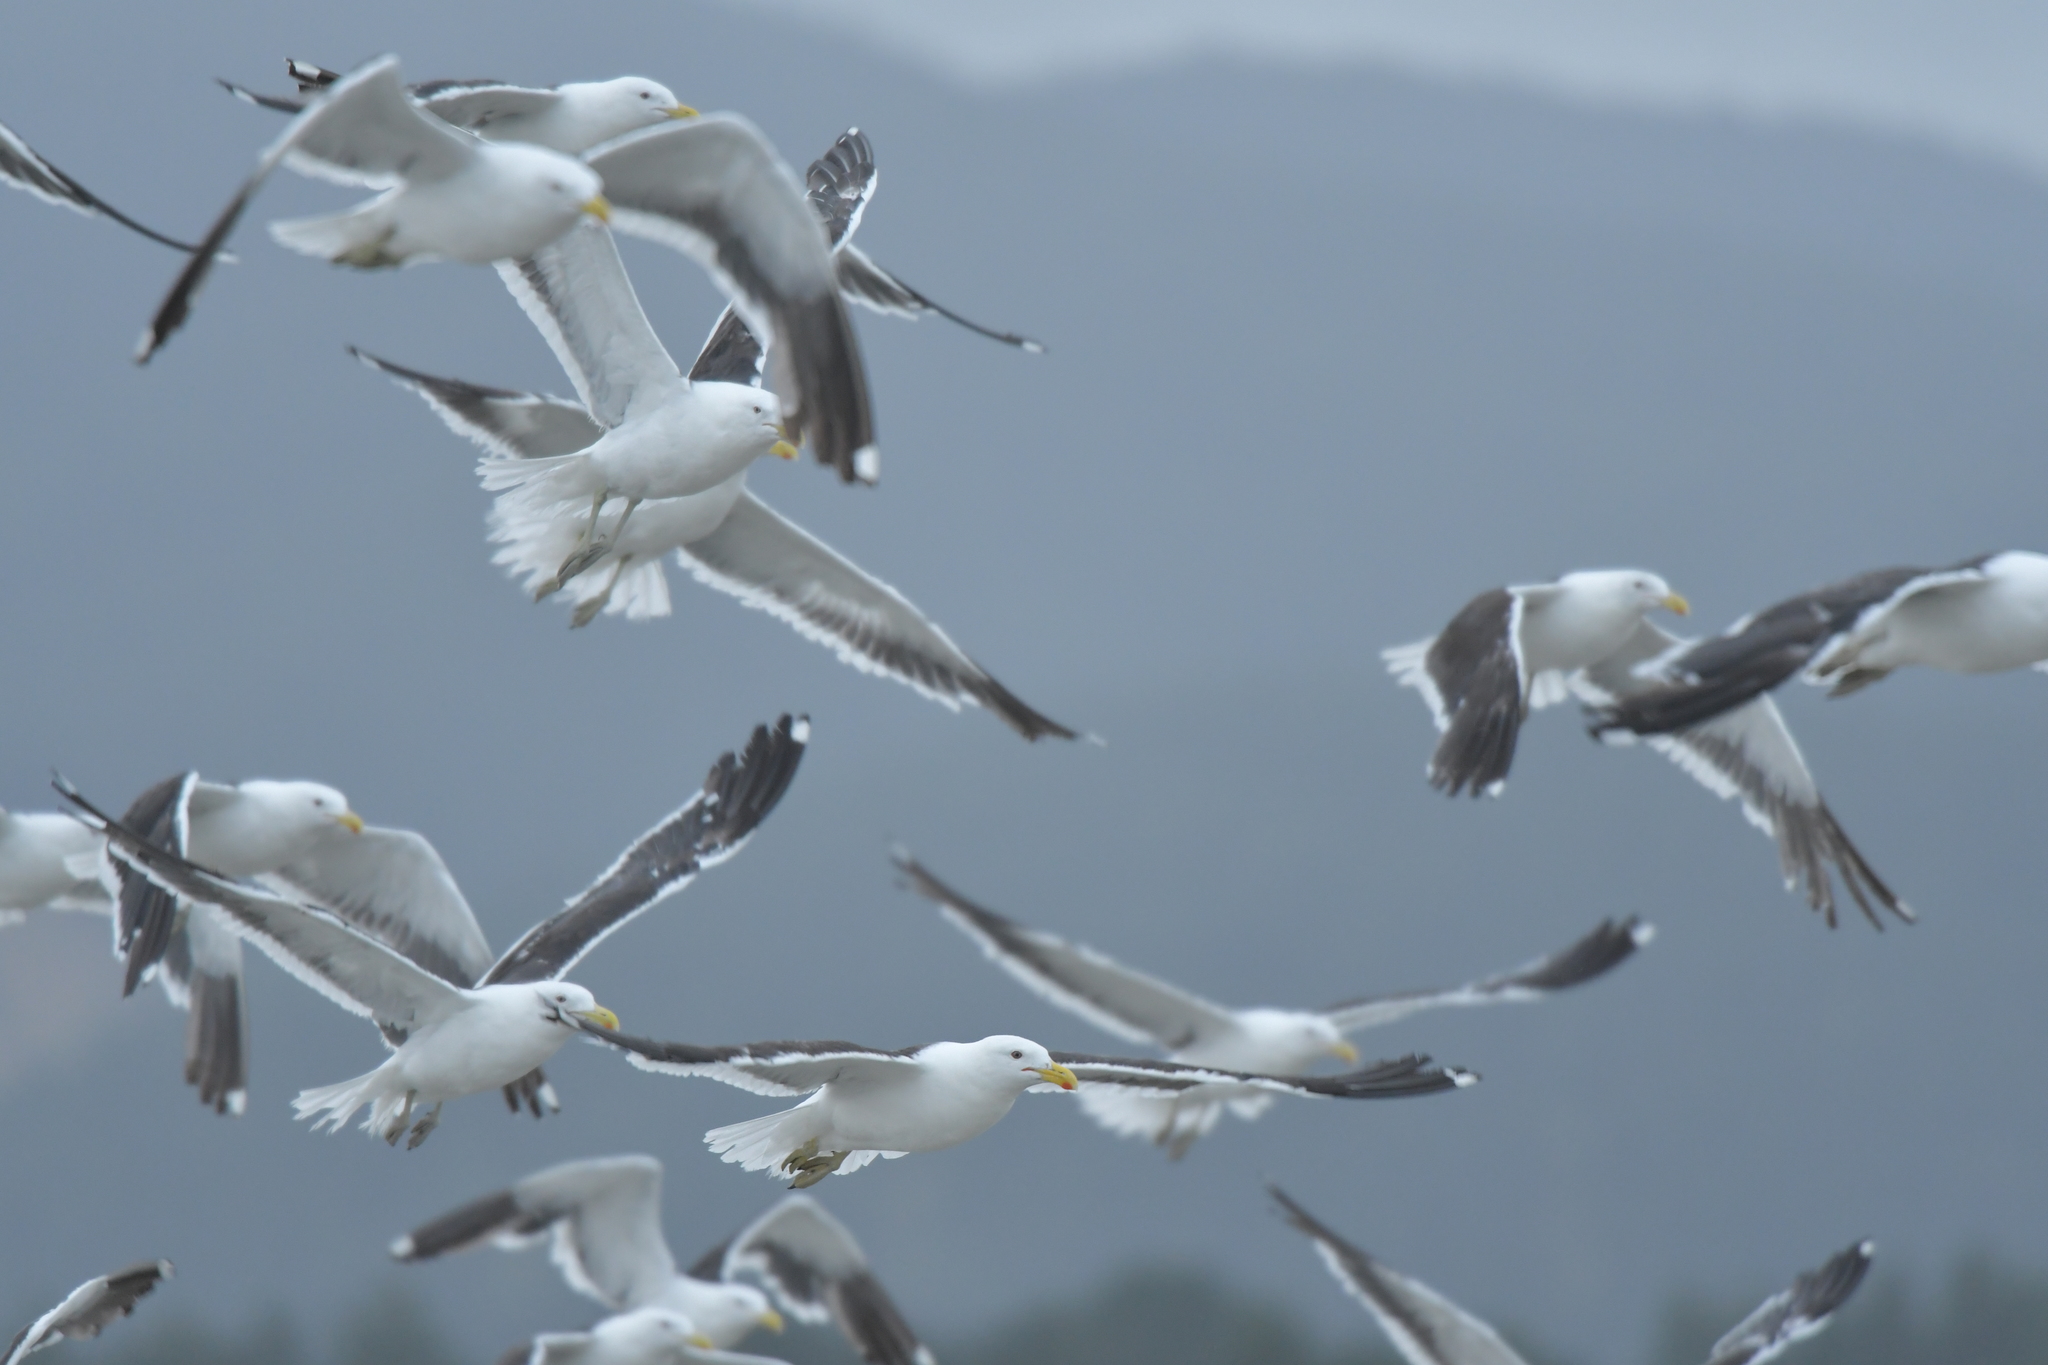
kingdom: Animalia
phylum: Chordata
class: Aves
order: Charadriiformes
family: Laridae
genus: Larus
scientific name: Larus dominicanus
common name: Kelp gull
